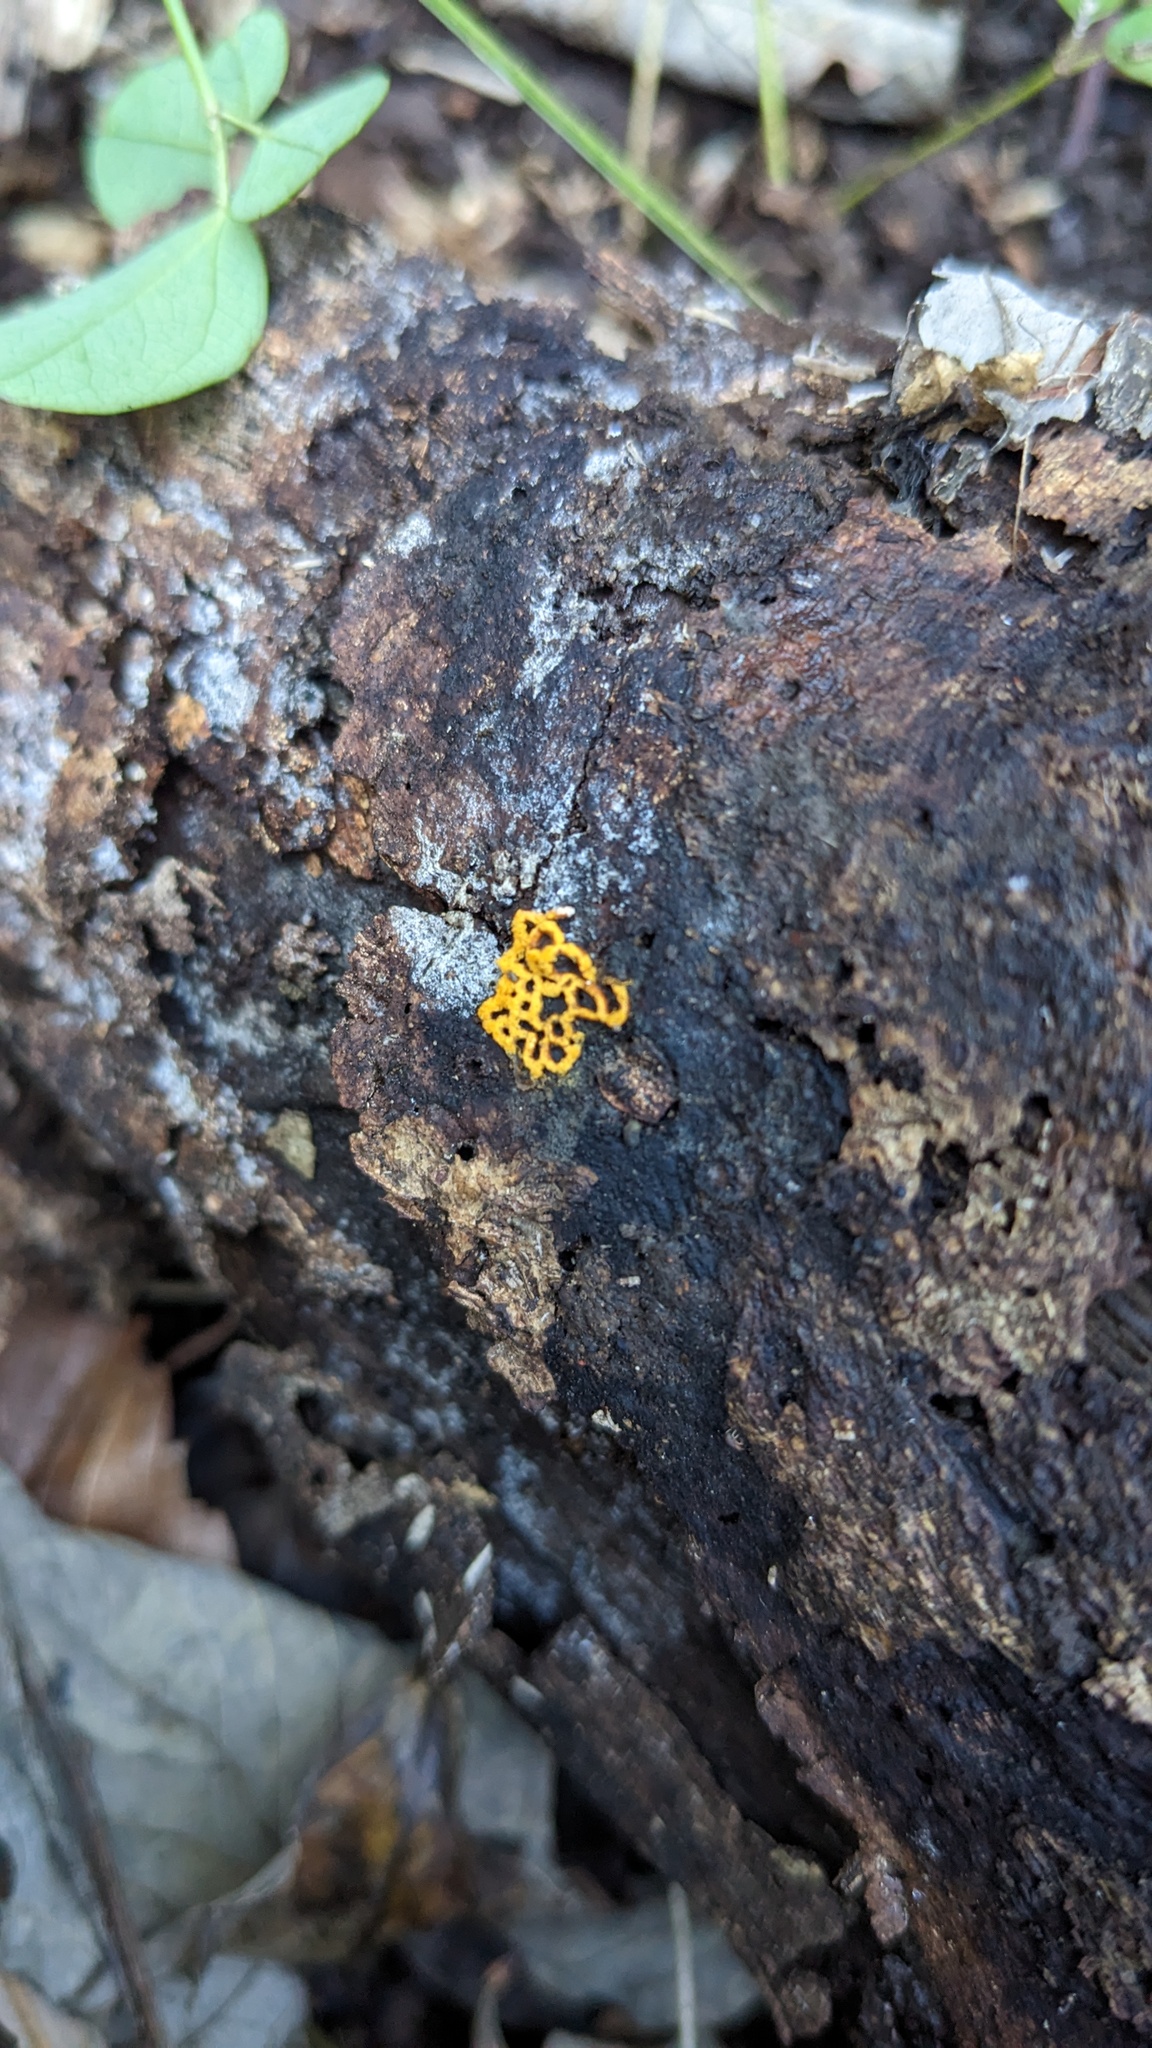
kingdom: Protozoa
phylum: Mycetozoa
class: Myxomycetes
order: Trichiales
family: Arcyriaceae
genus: Hemitrichia
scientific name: Hemitrichia serpula
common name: Pretzel slime mold
